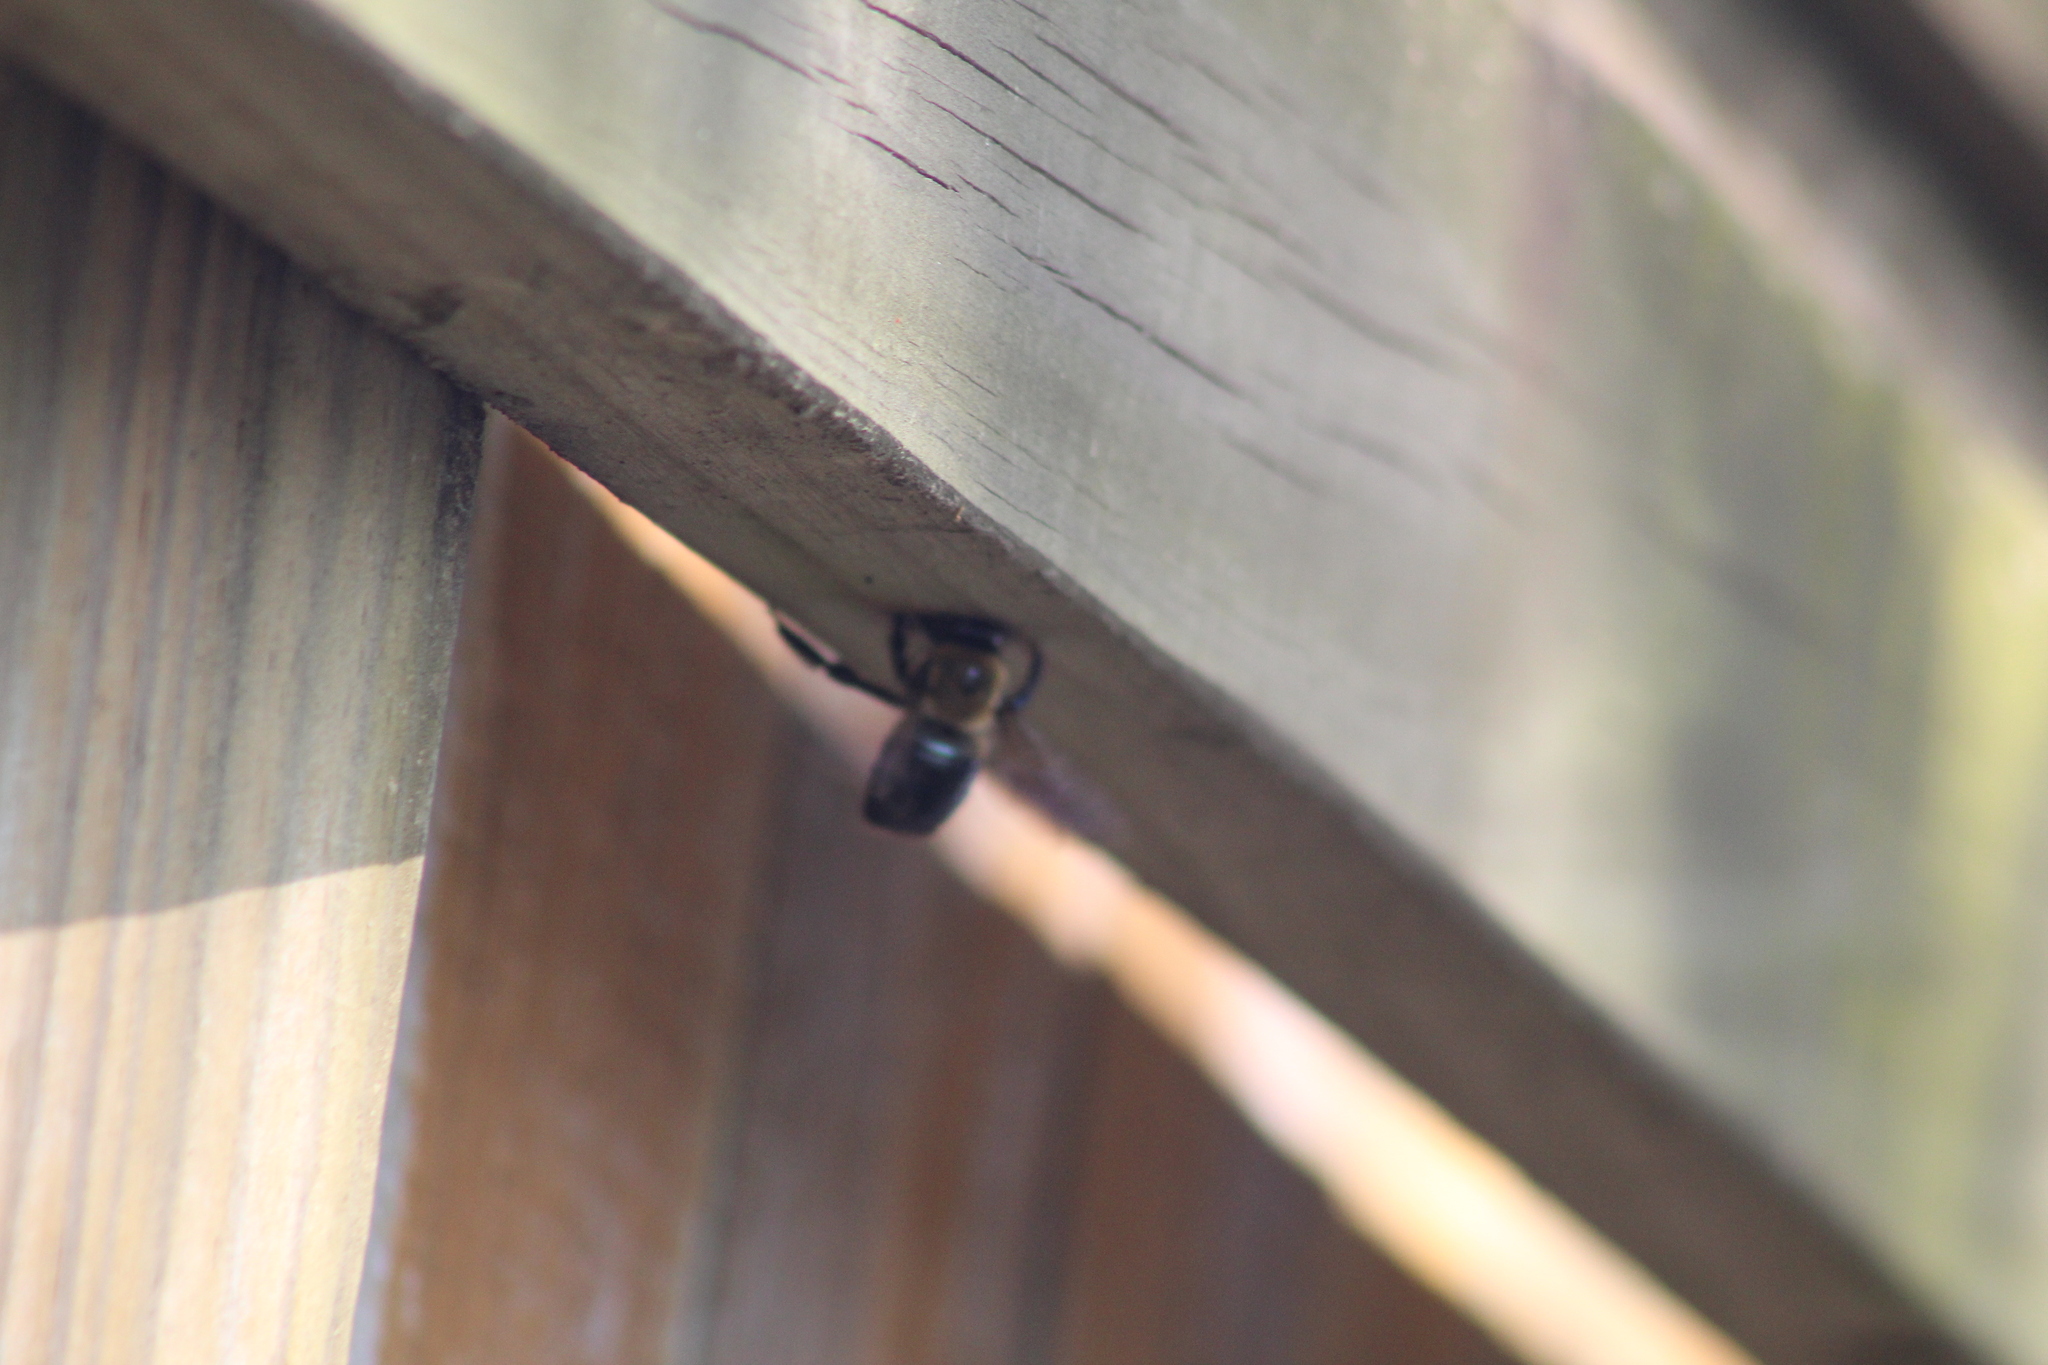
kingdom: Animalia
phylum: Arthropoda
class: Insecta
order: Hymenoptera
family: Apidae
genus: Xylocopa
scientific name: Xylocopa virginica
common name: Carpenter bee
